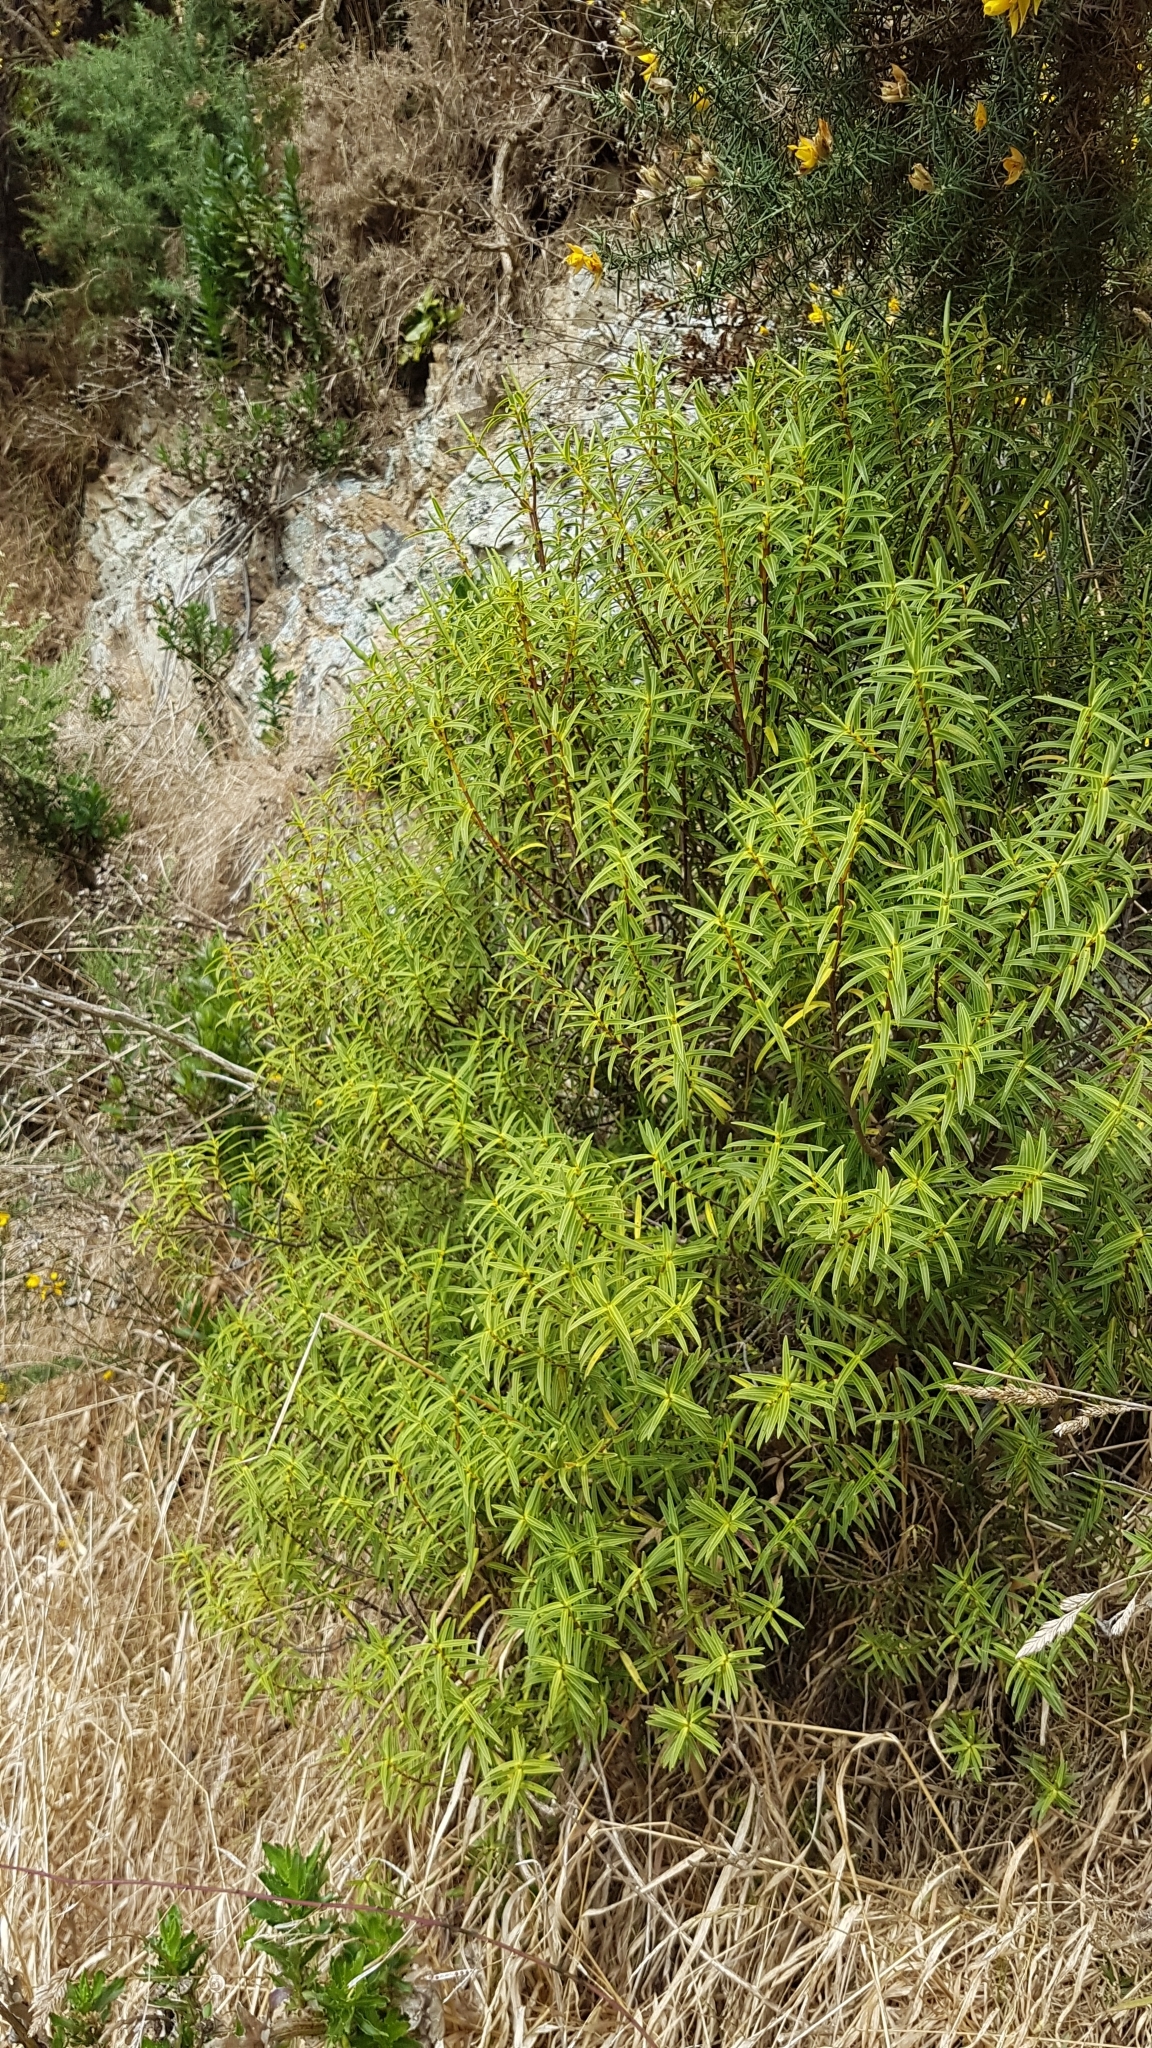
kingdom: Plantae
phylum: Tracheophyta
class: Magnoliopsida
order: Lamiales
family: Plantaginaceae
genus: Veronica
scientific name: Veronica parviflora
